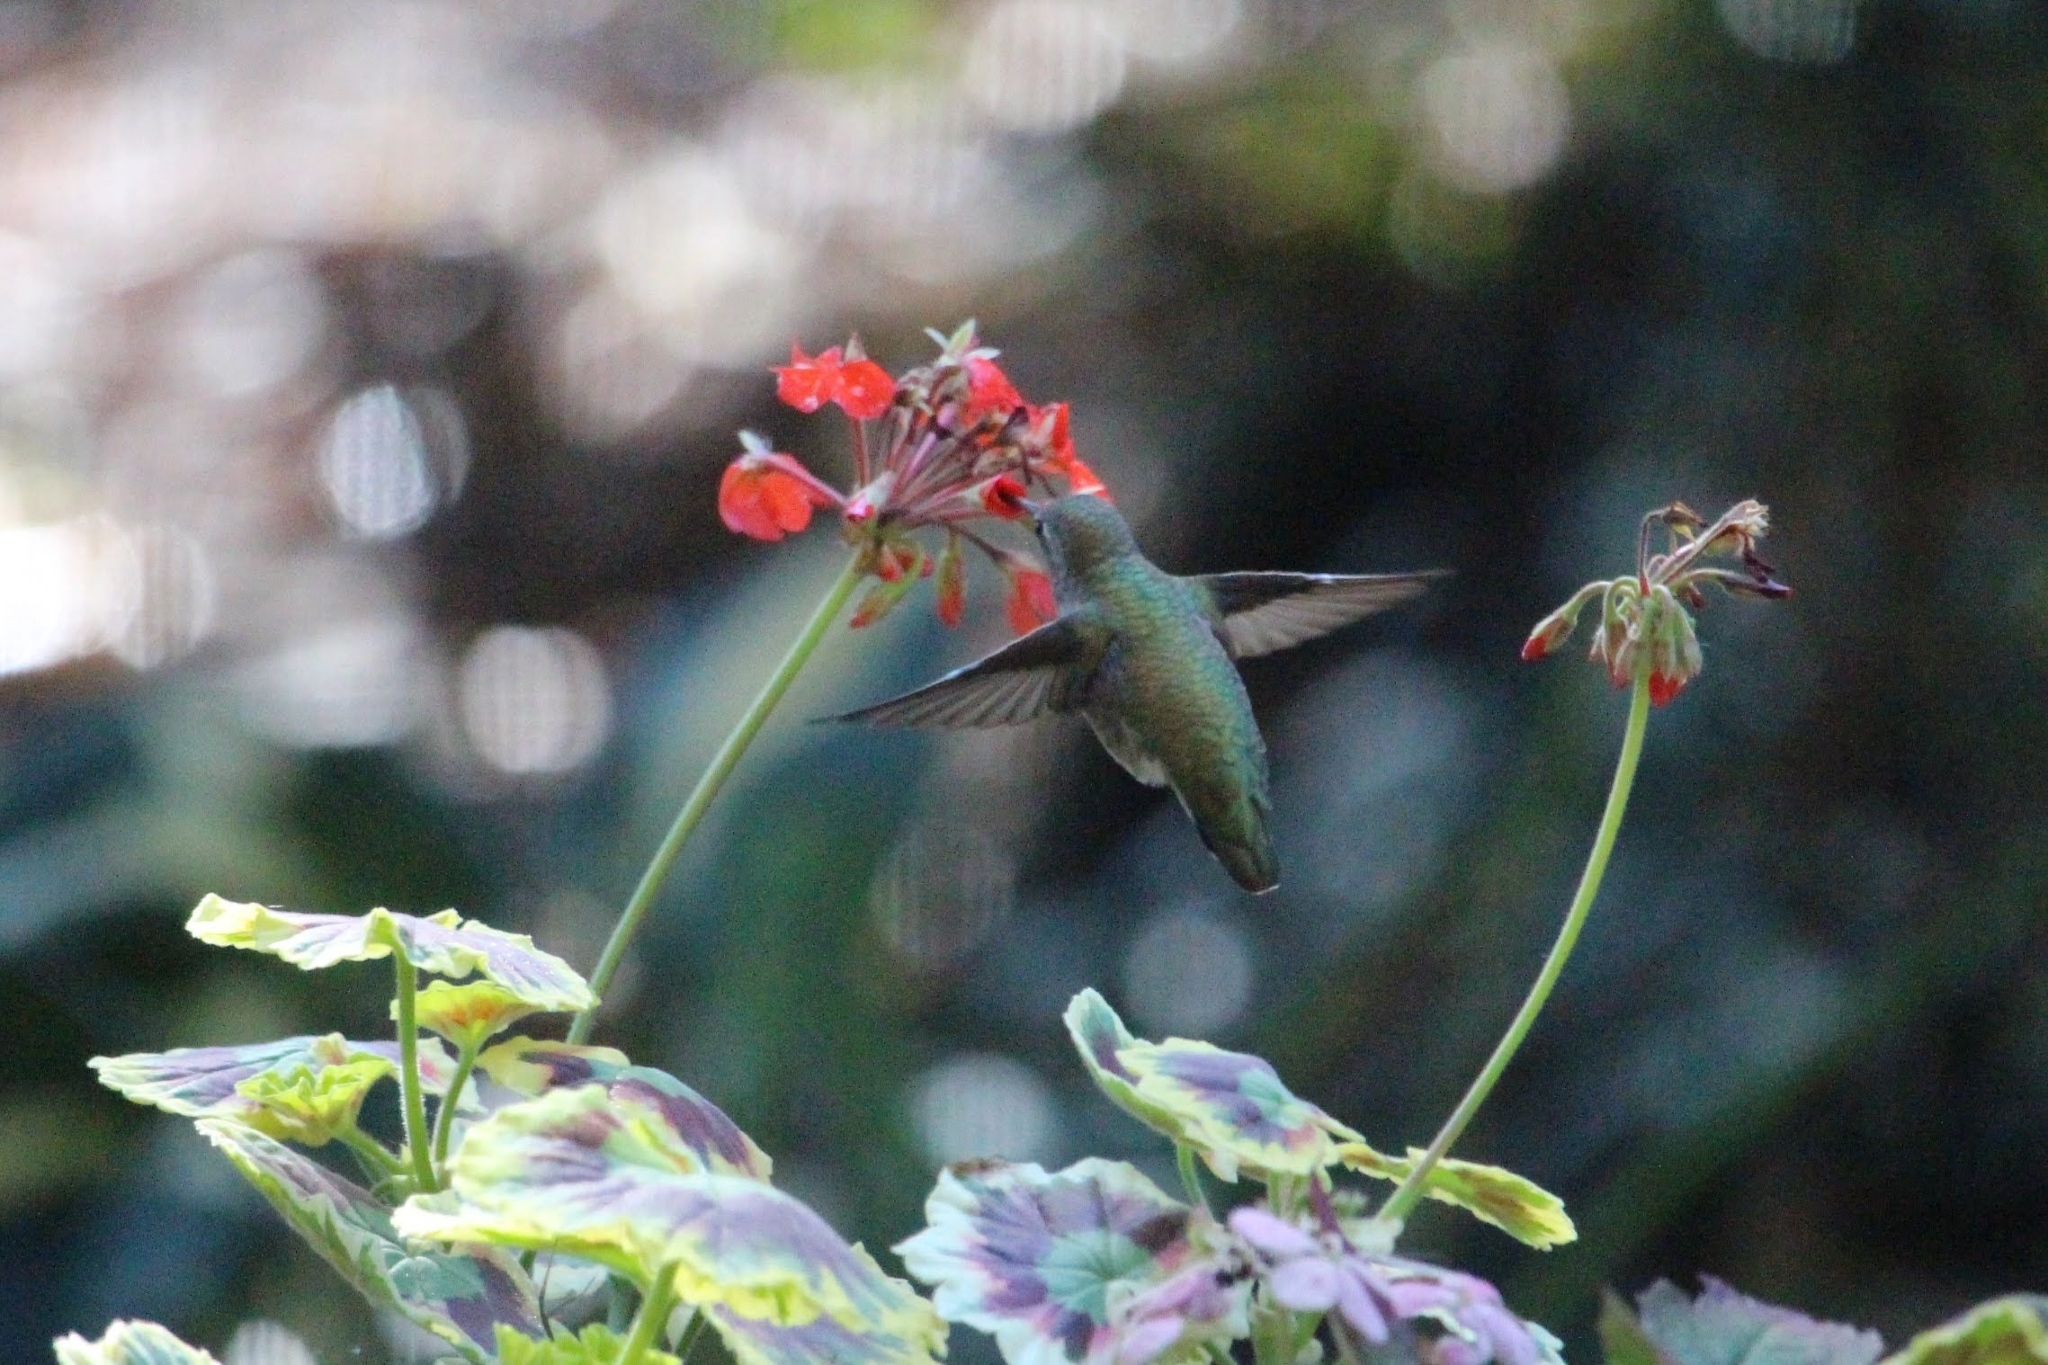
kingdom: Animalia
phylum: Chordata
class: Aves
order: Apodiformes
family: Trochilidae
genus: Calypte
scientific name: Calypte anna
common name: Anna's hummingbird
